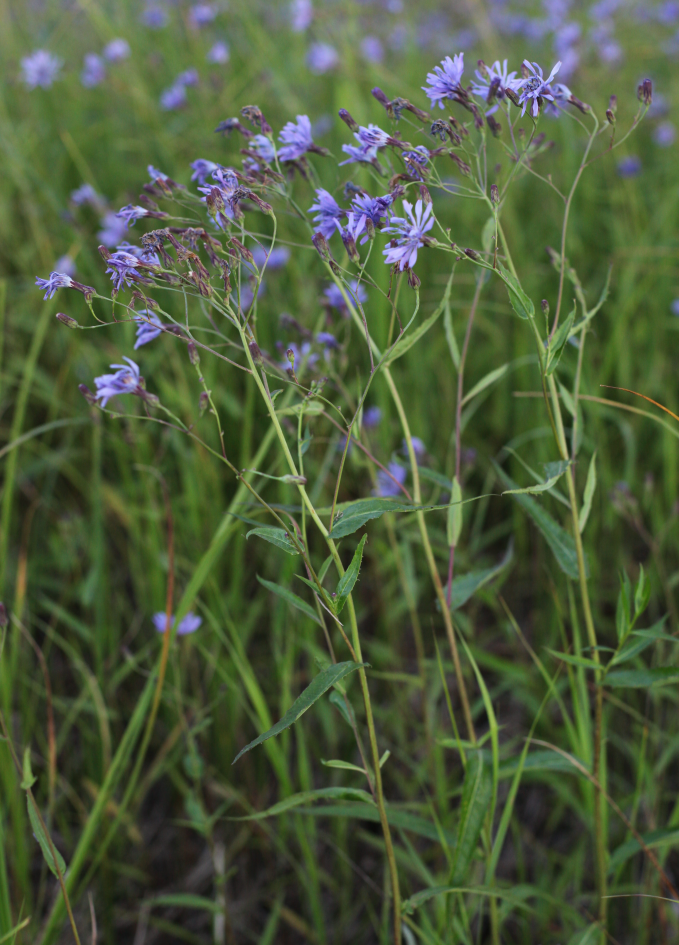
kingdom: Plantae
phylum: Tracheophyta
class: Magnoliopsida
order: Asterales
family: Asteraceae
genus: Lactuca
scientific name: Lactuca sibirica
